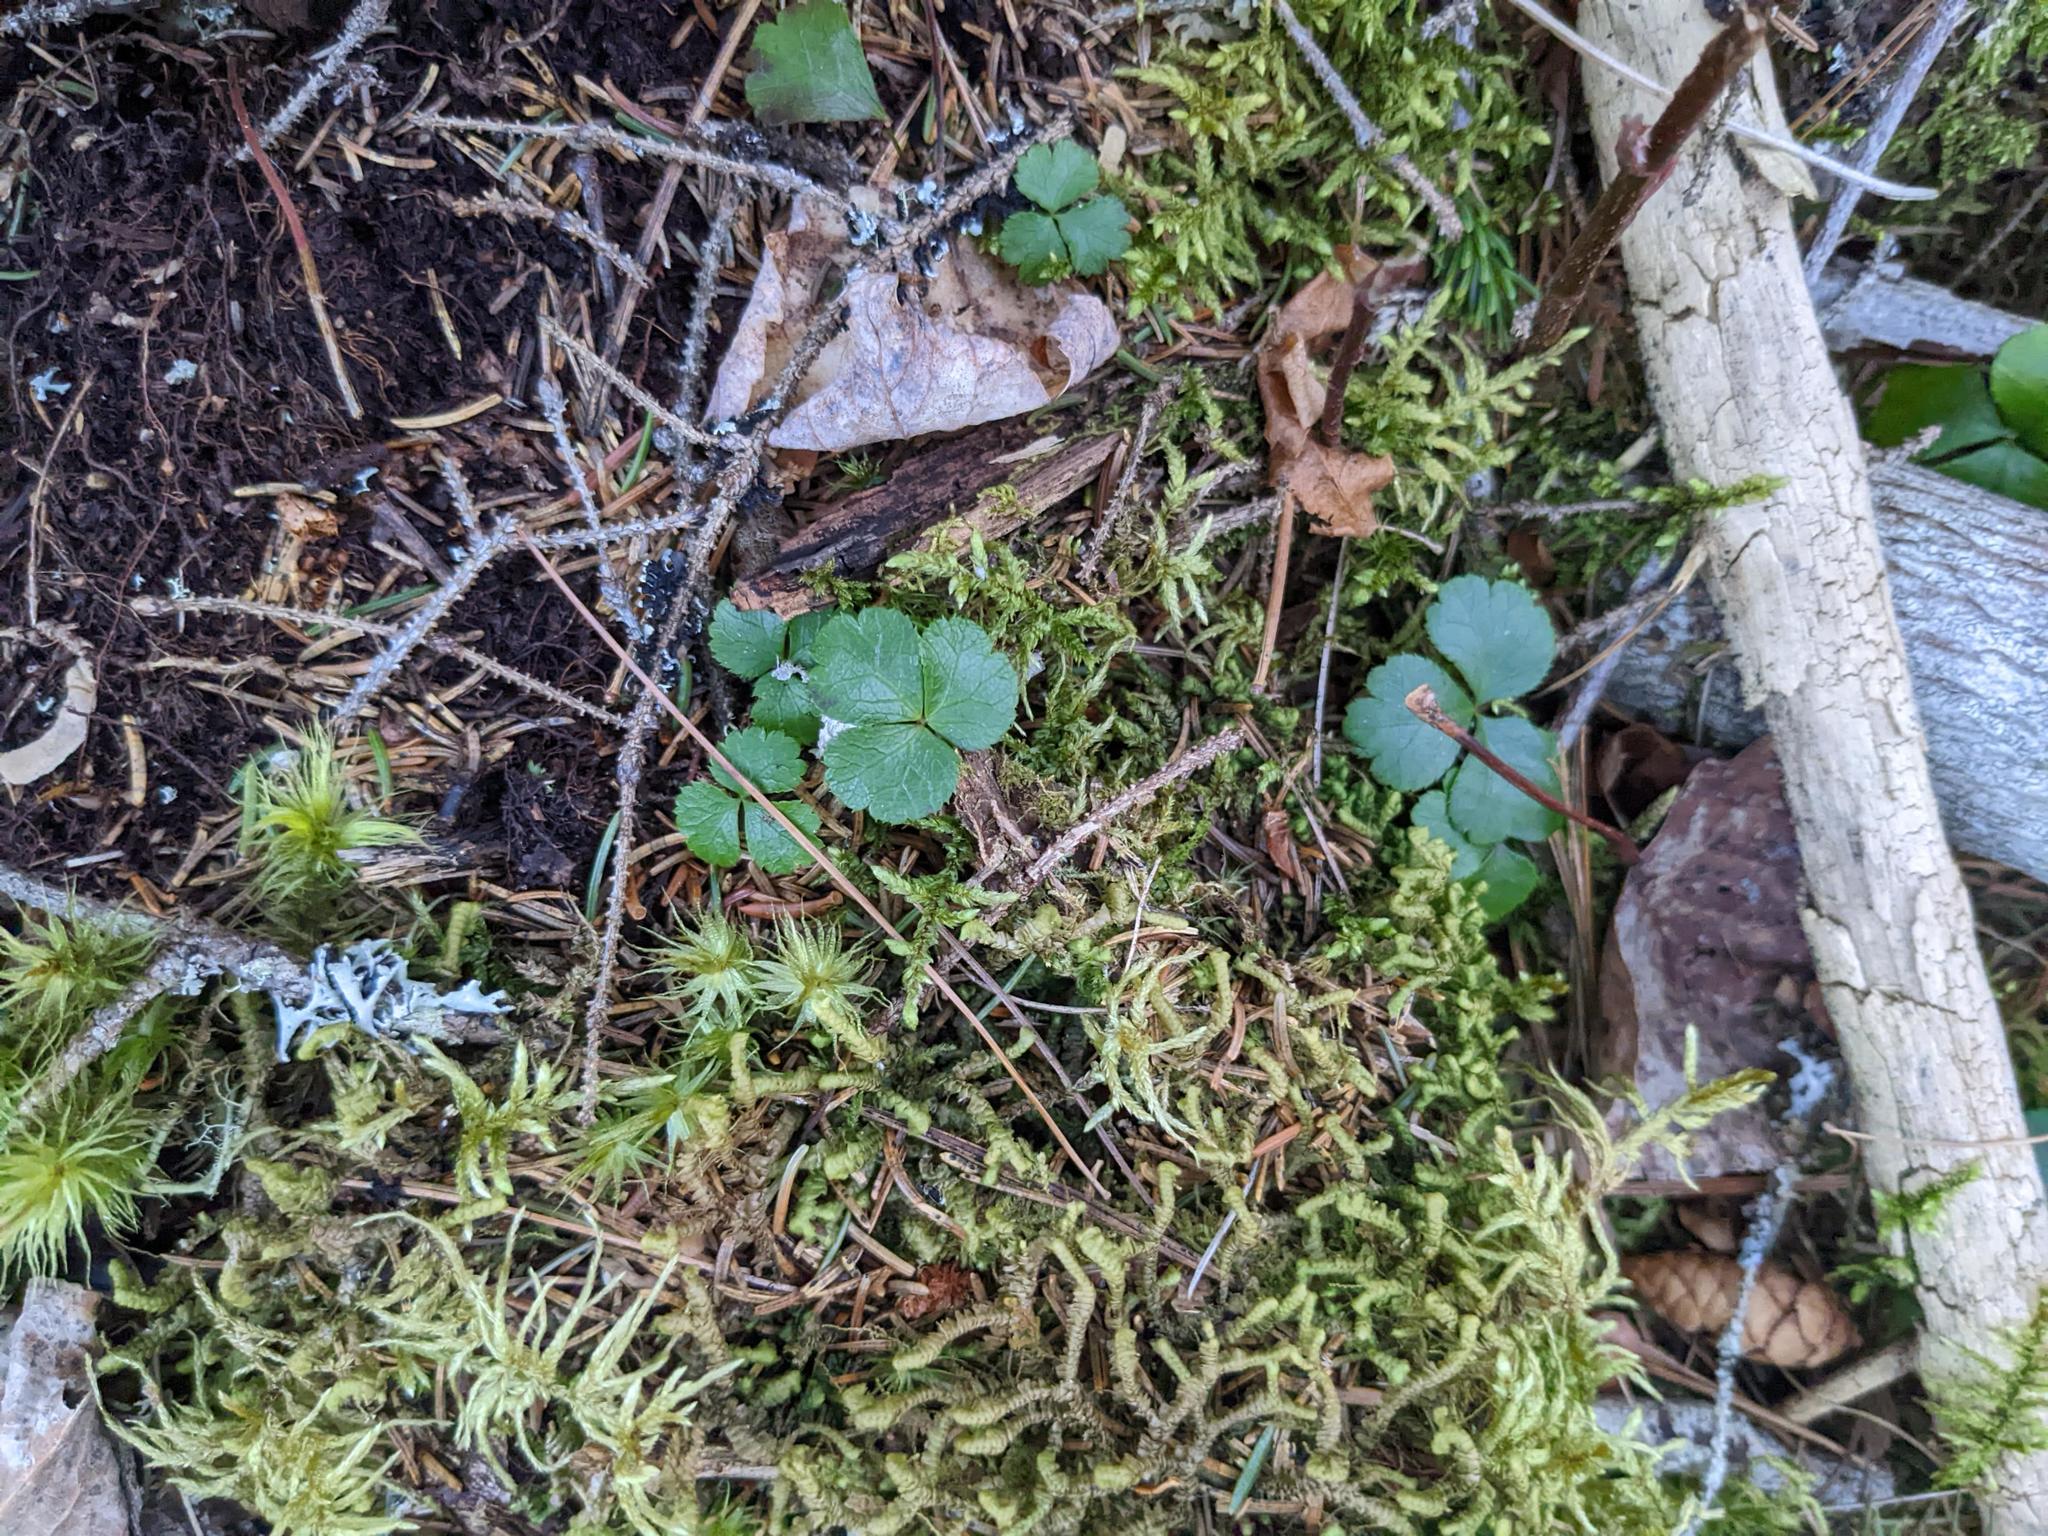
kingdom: Plantae
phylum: Bryophyta
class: Bryopsida
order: Hypnales
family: Hylocomiaceae
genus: Pleurozium
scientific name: Pleurozium schreberi
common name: Red-stemmed feather moss
